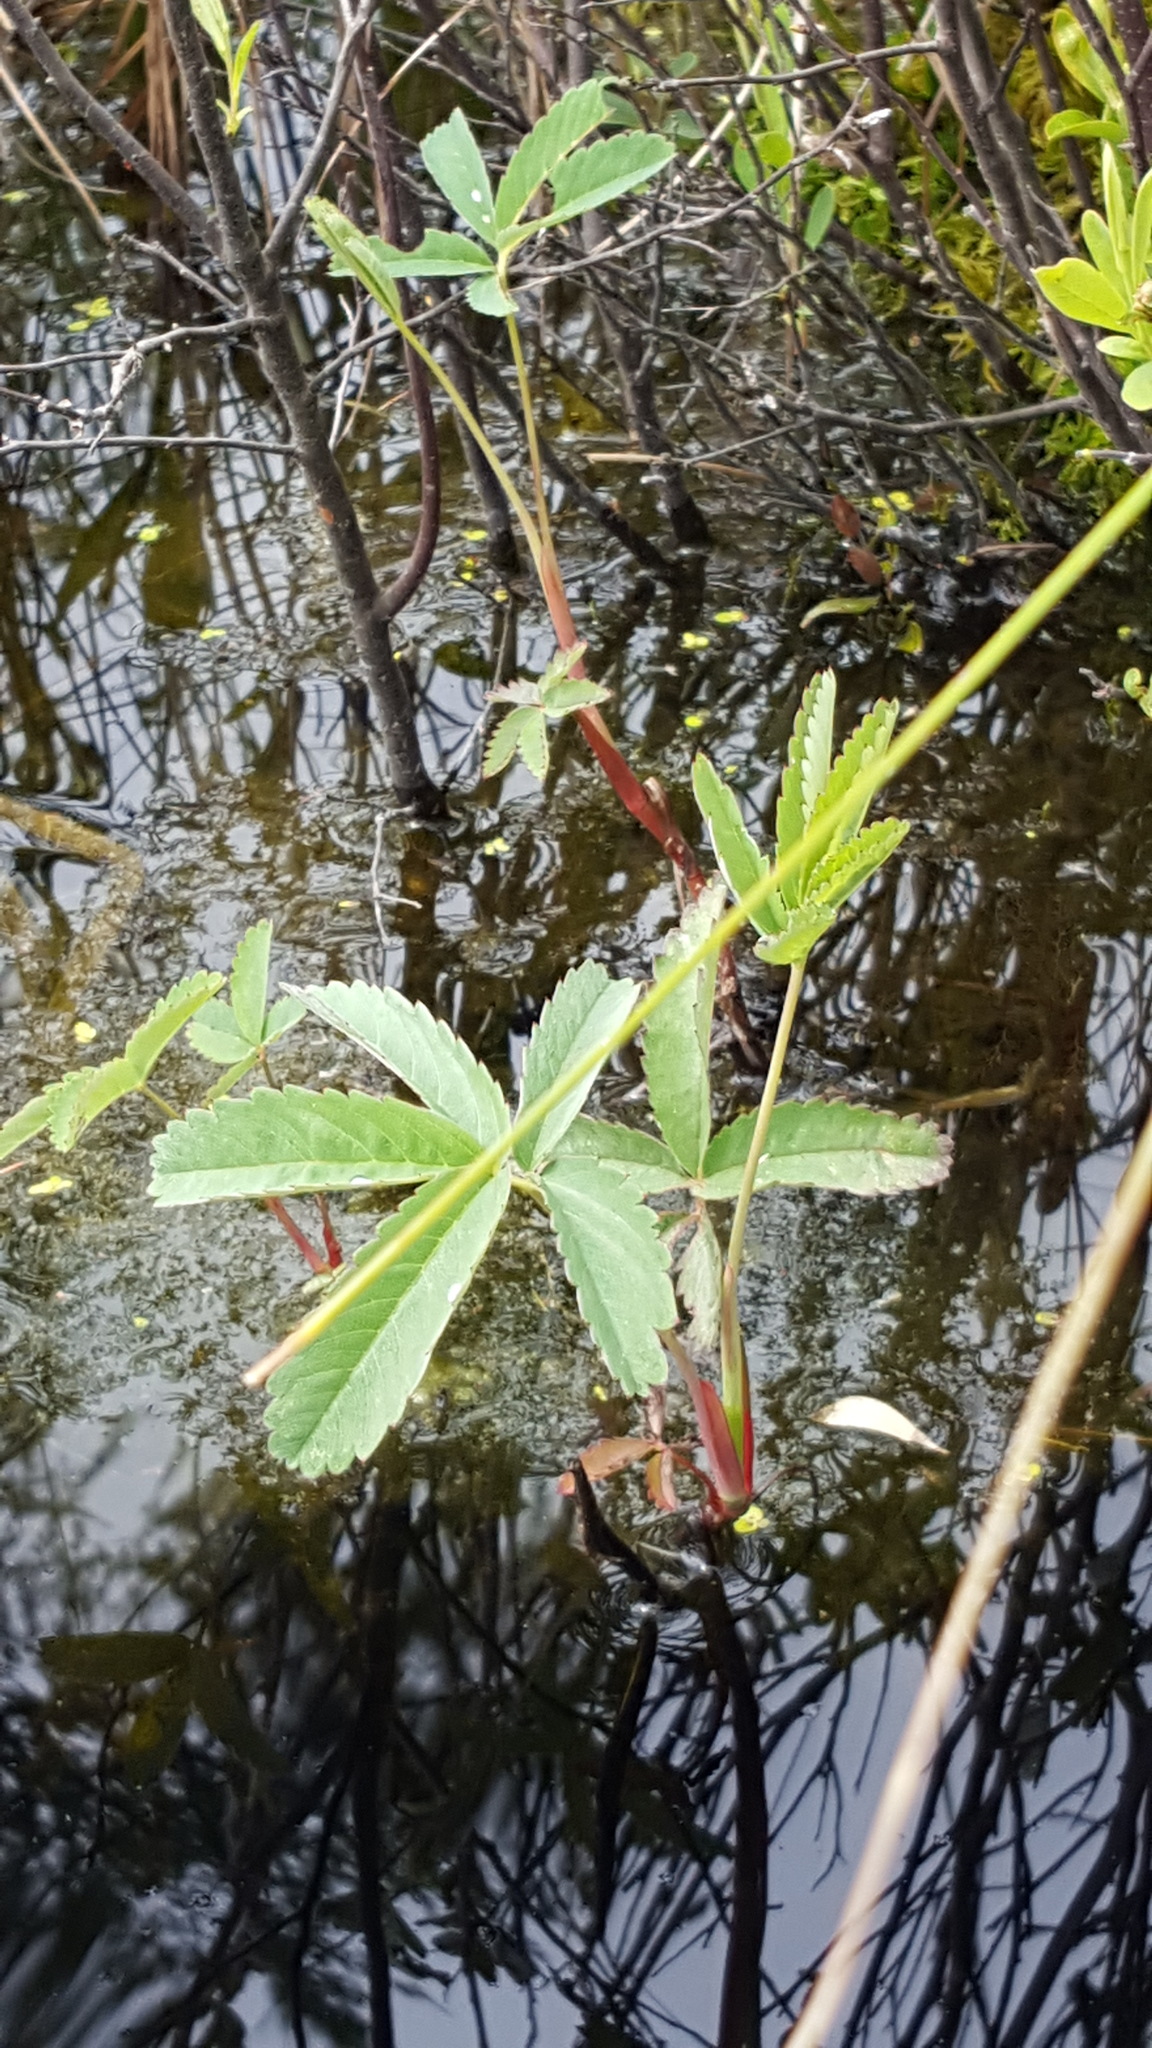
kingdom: Plantae
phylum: Tracheophyta
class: Magnoliopsida
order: Rosales
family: Rosaceae
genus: Comarum
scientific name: Comarum palustre
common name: Marsh cinquefoil
